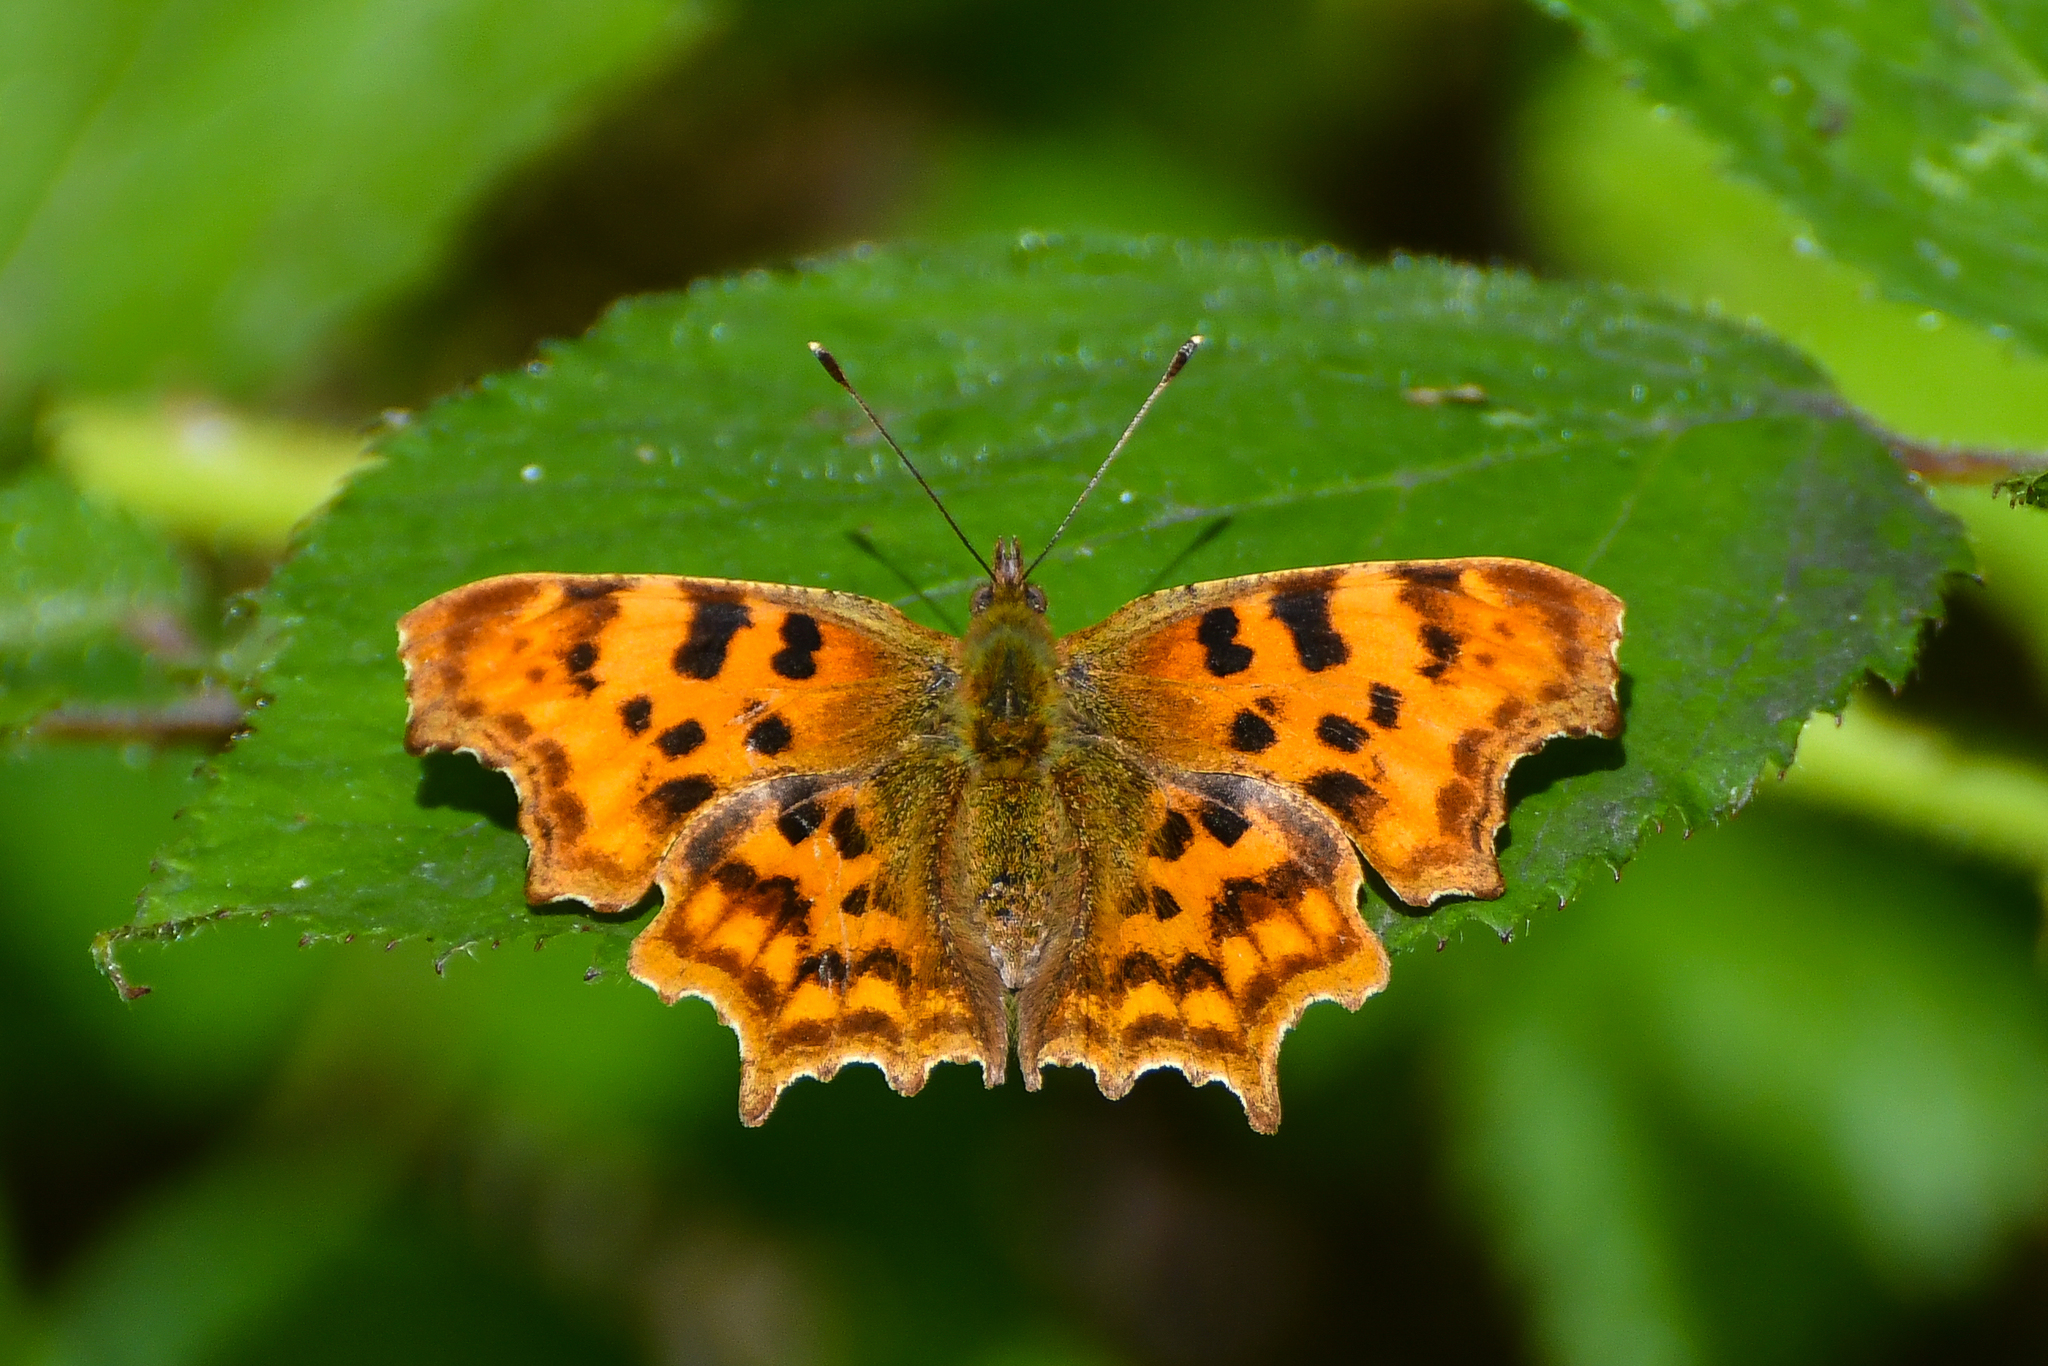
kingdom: Animalia
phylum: Arthropoda
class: Insecta
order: Lepidoptera
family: Nymphalidae
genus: Polygonia
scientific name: Polygonia c-album
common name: Comma
